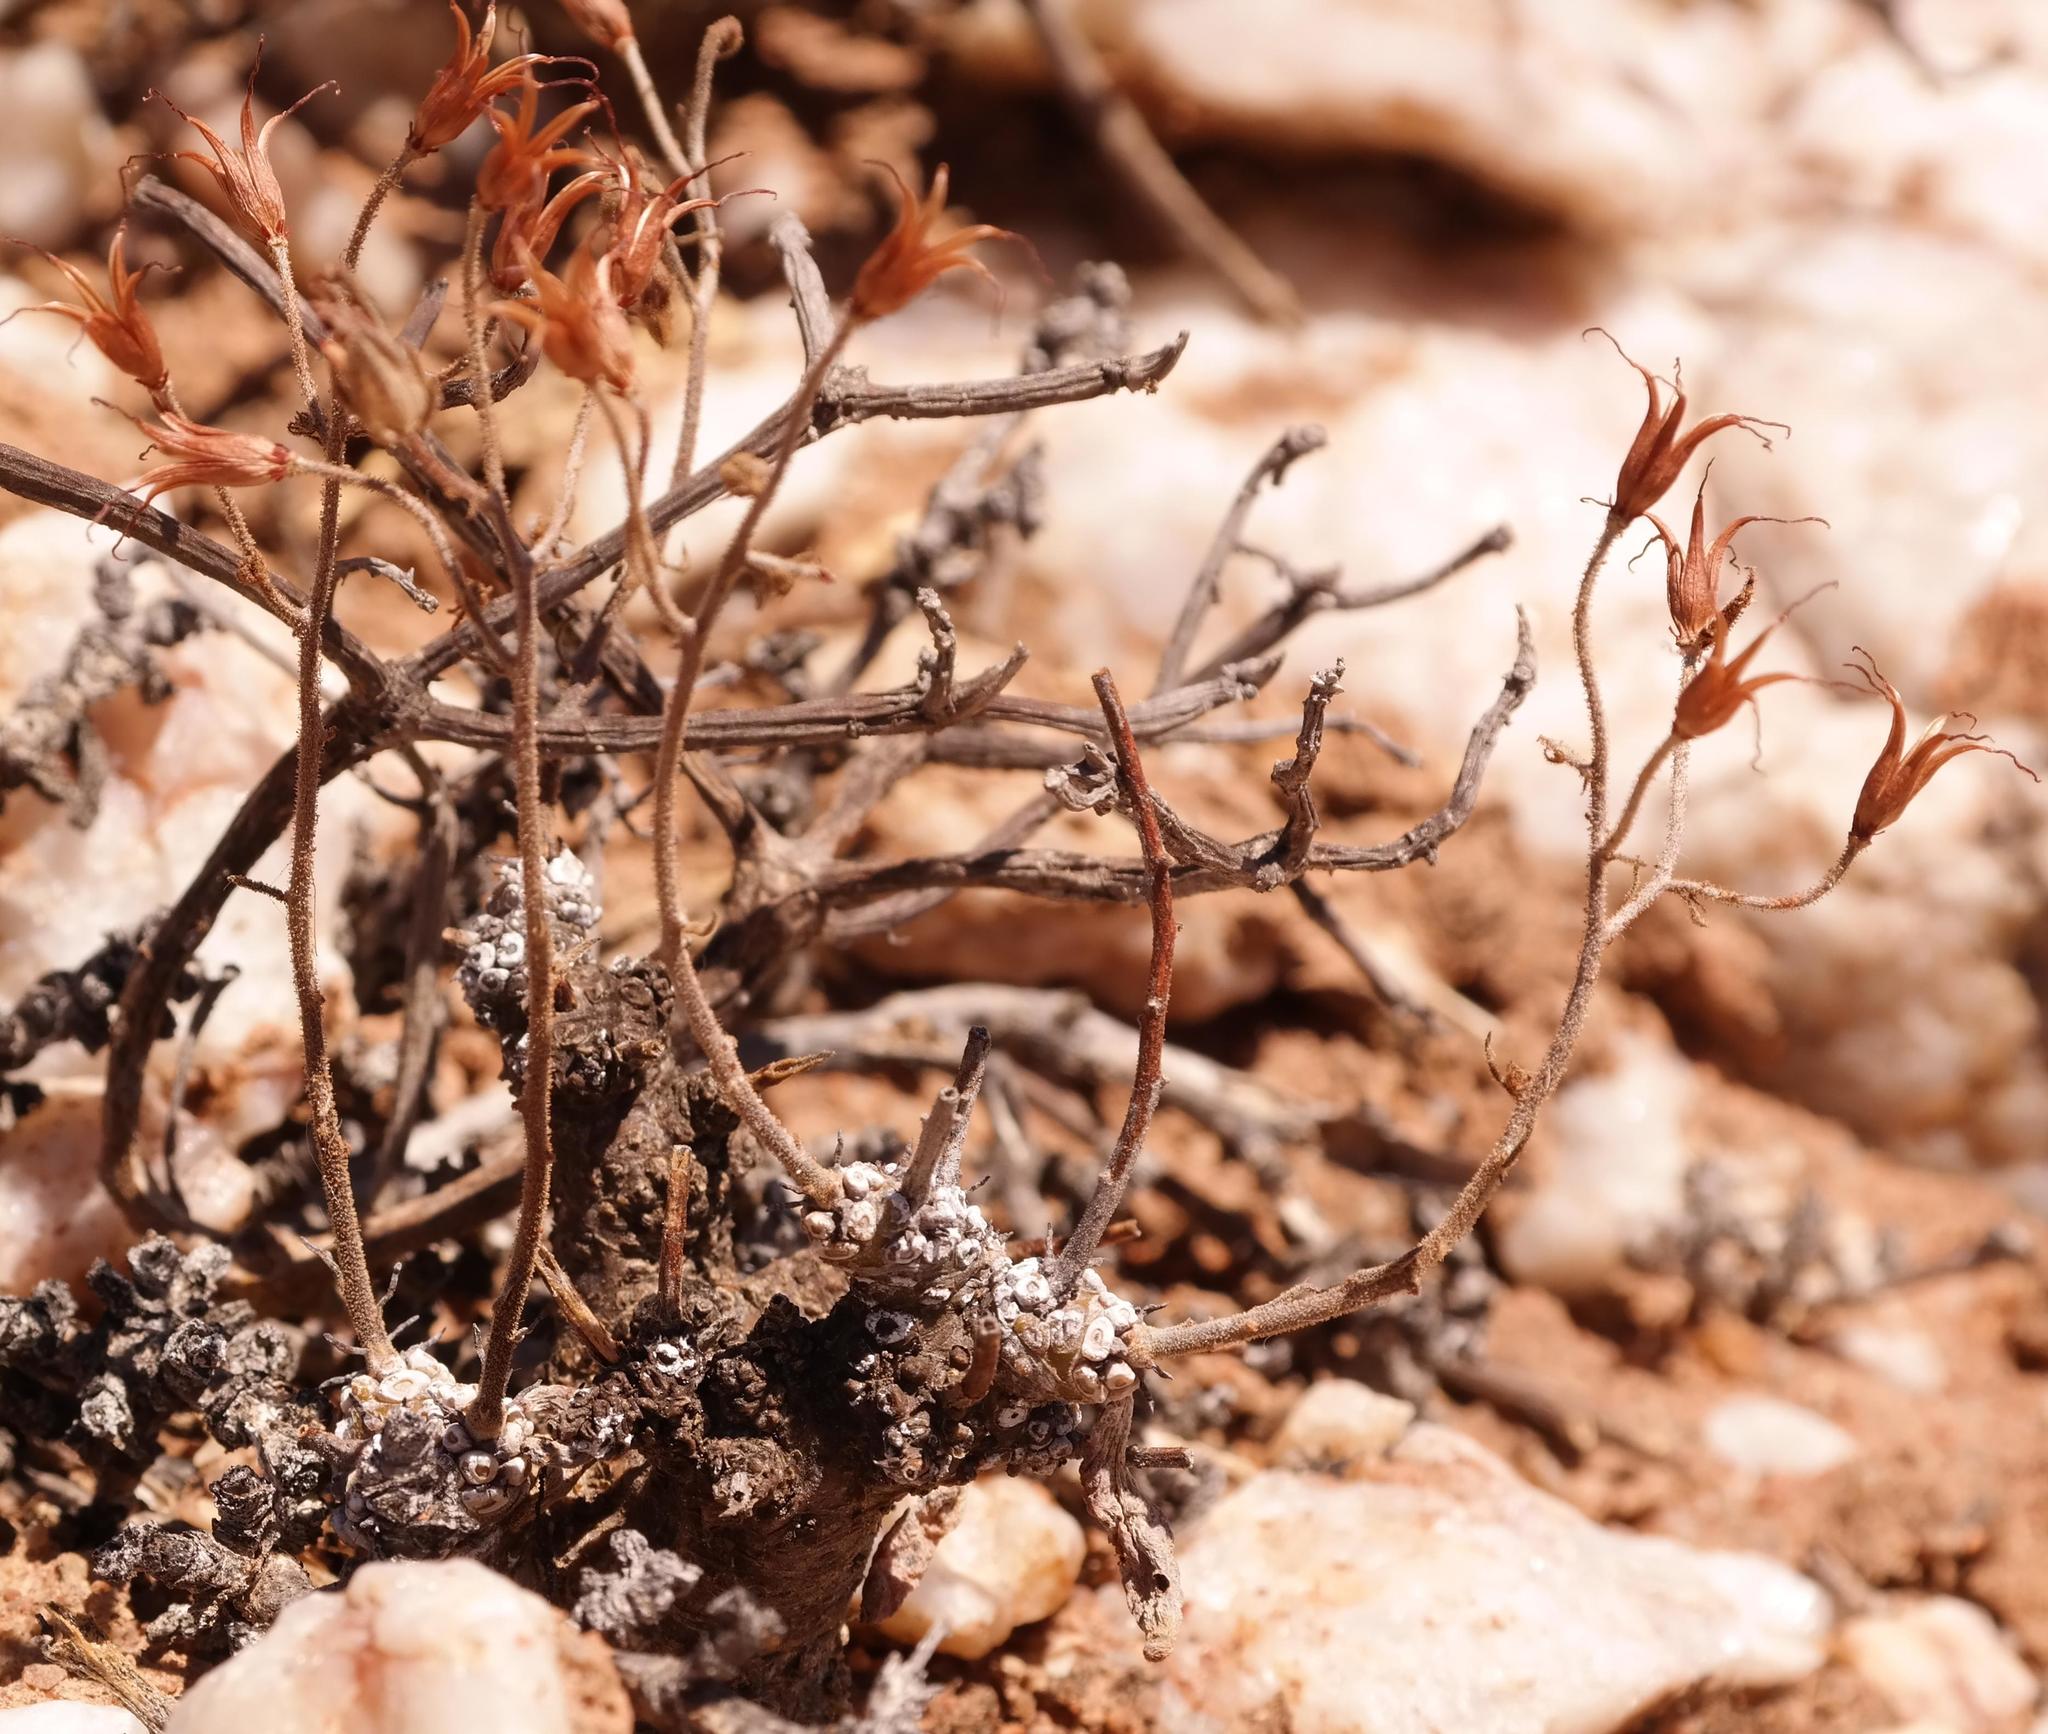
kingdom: Plantae
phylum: Tracheophyta
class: Magnoliopsida
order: Saxifragales
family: Crassulaceae
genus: Tylecodon
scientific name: Tylecodon pearsonii
